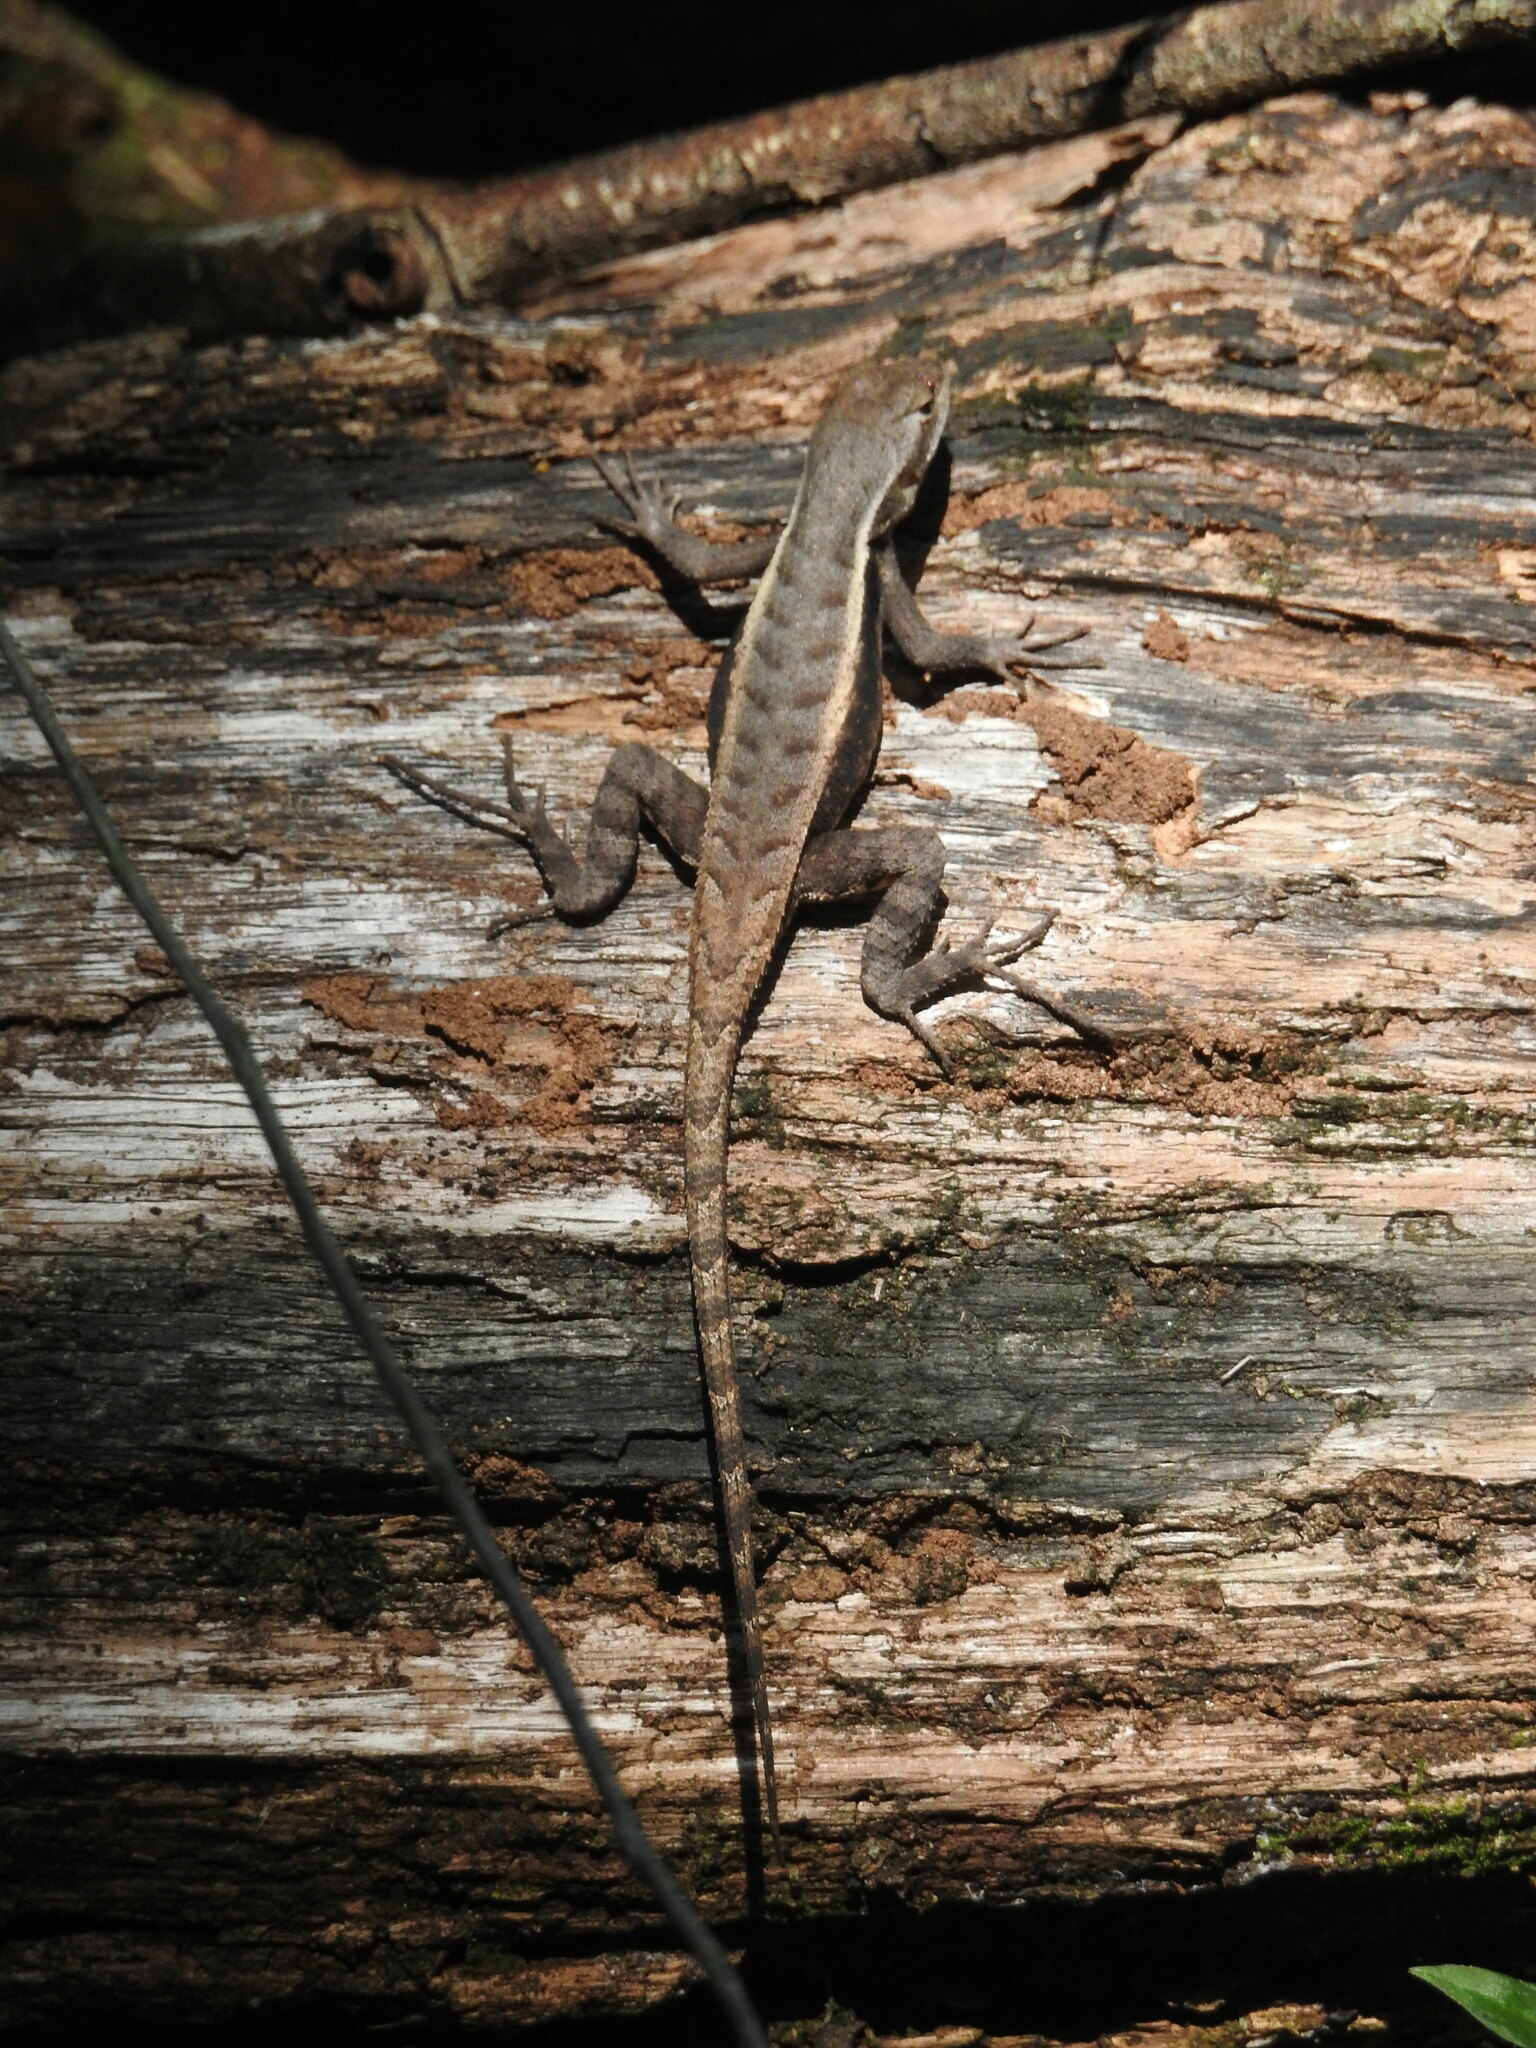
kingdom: Animalia
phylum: Chordata
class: Squamata
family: Phrynosomatidae
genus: Sceloporus
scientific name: Sceloporus chrysostictus
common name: Yellow-spotted spiny lizard
